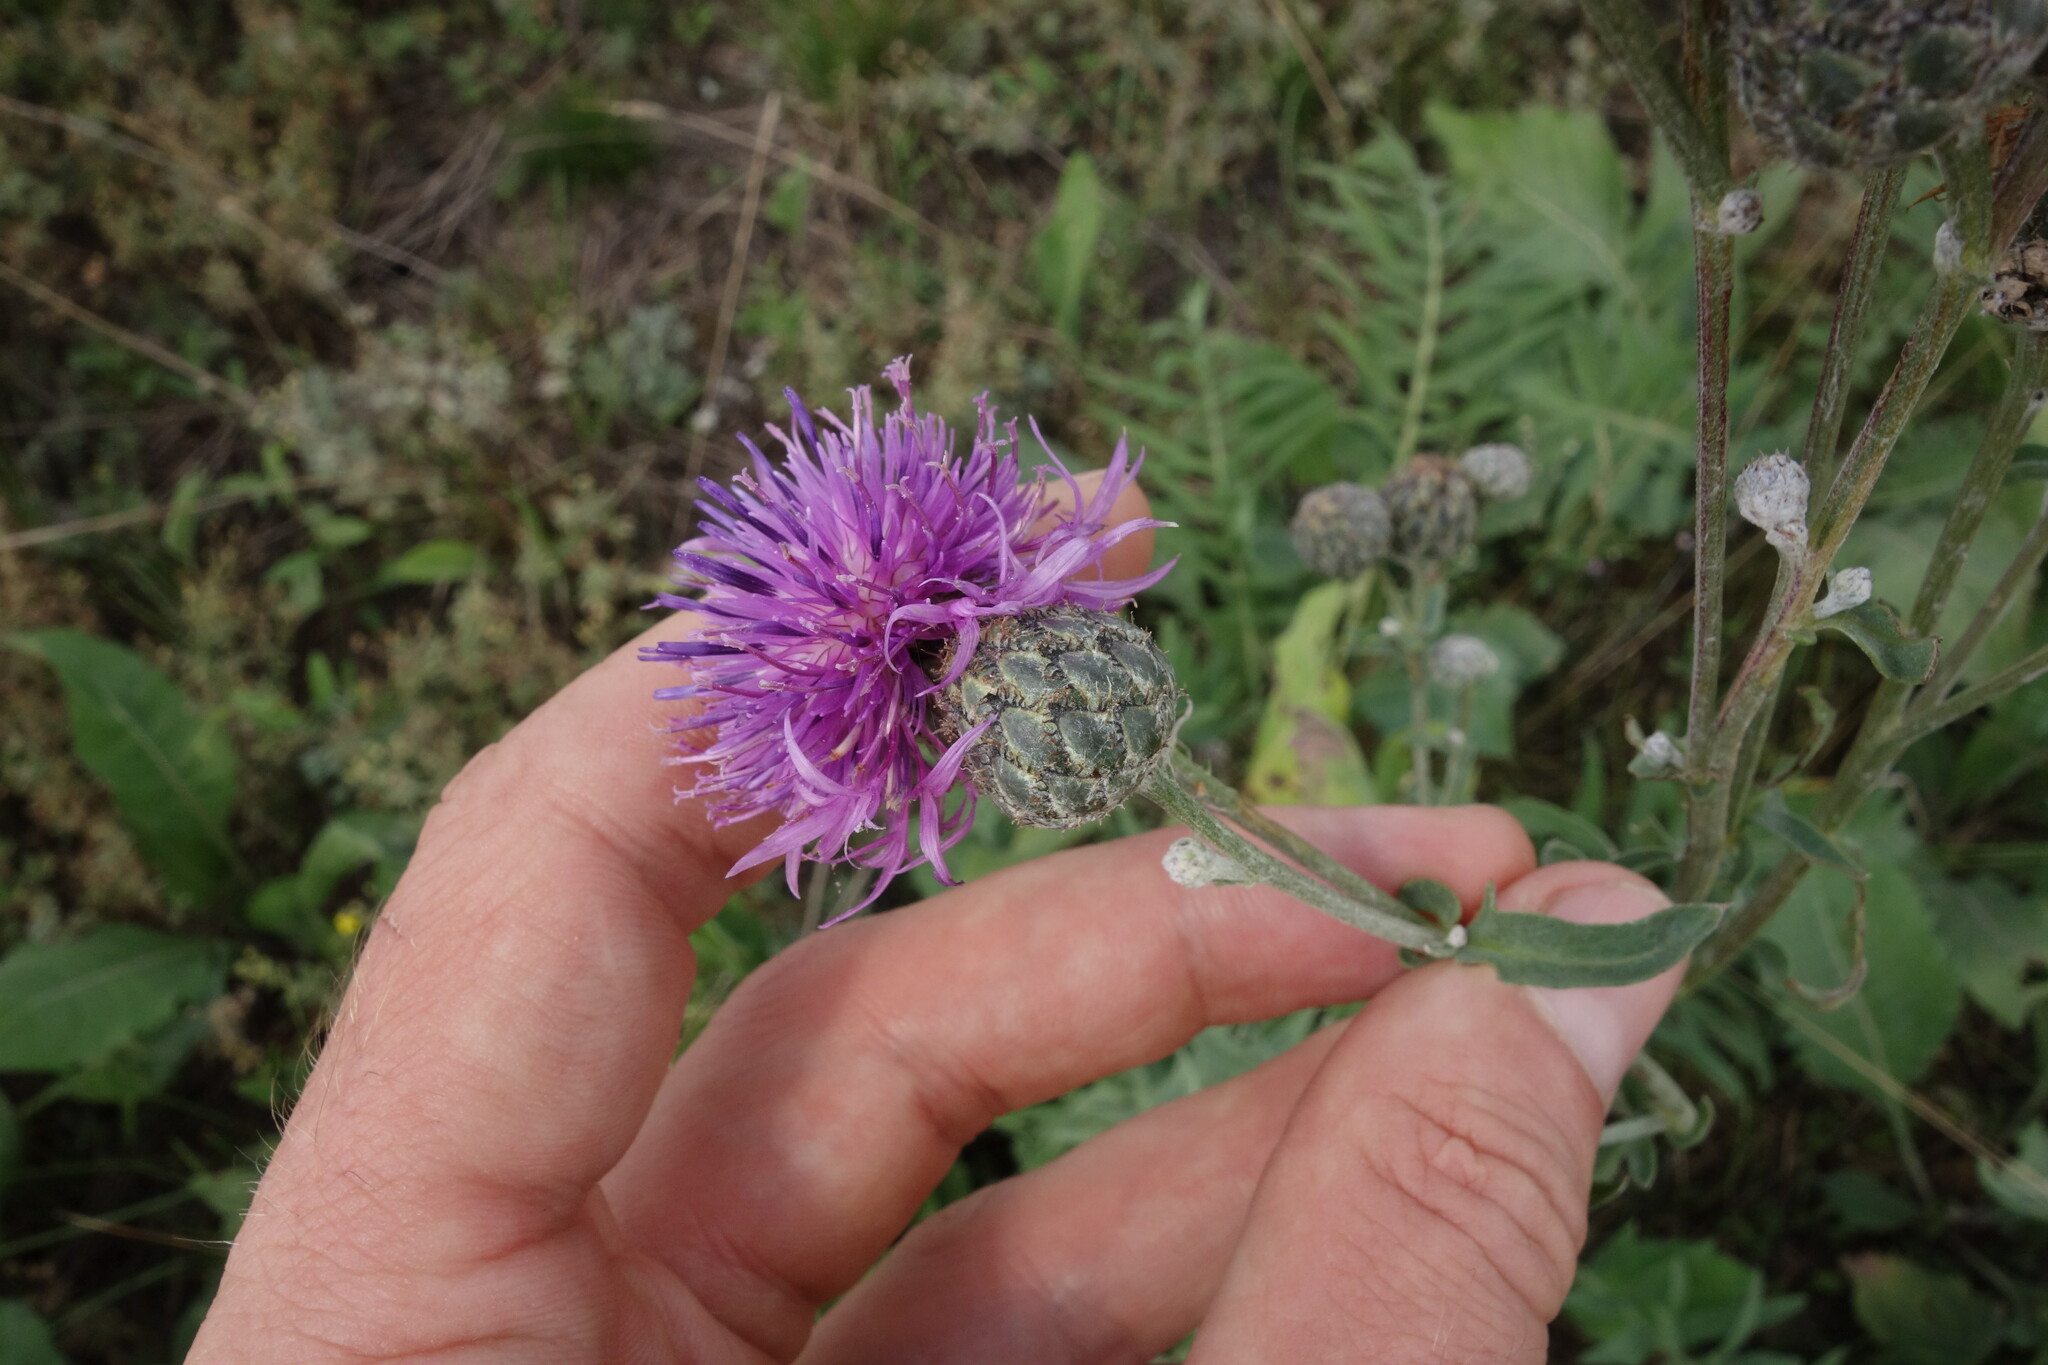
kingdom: Plantae
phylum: Tracheophyta
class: Magnoliopsida
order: Asterales
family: Asteraceae
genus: Centaurea
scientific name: Centaurea scabiosa
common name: Greater knapweed
